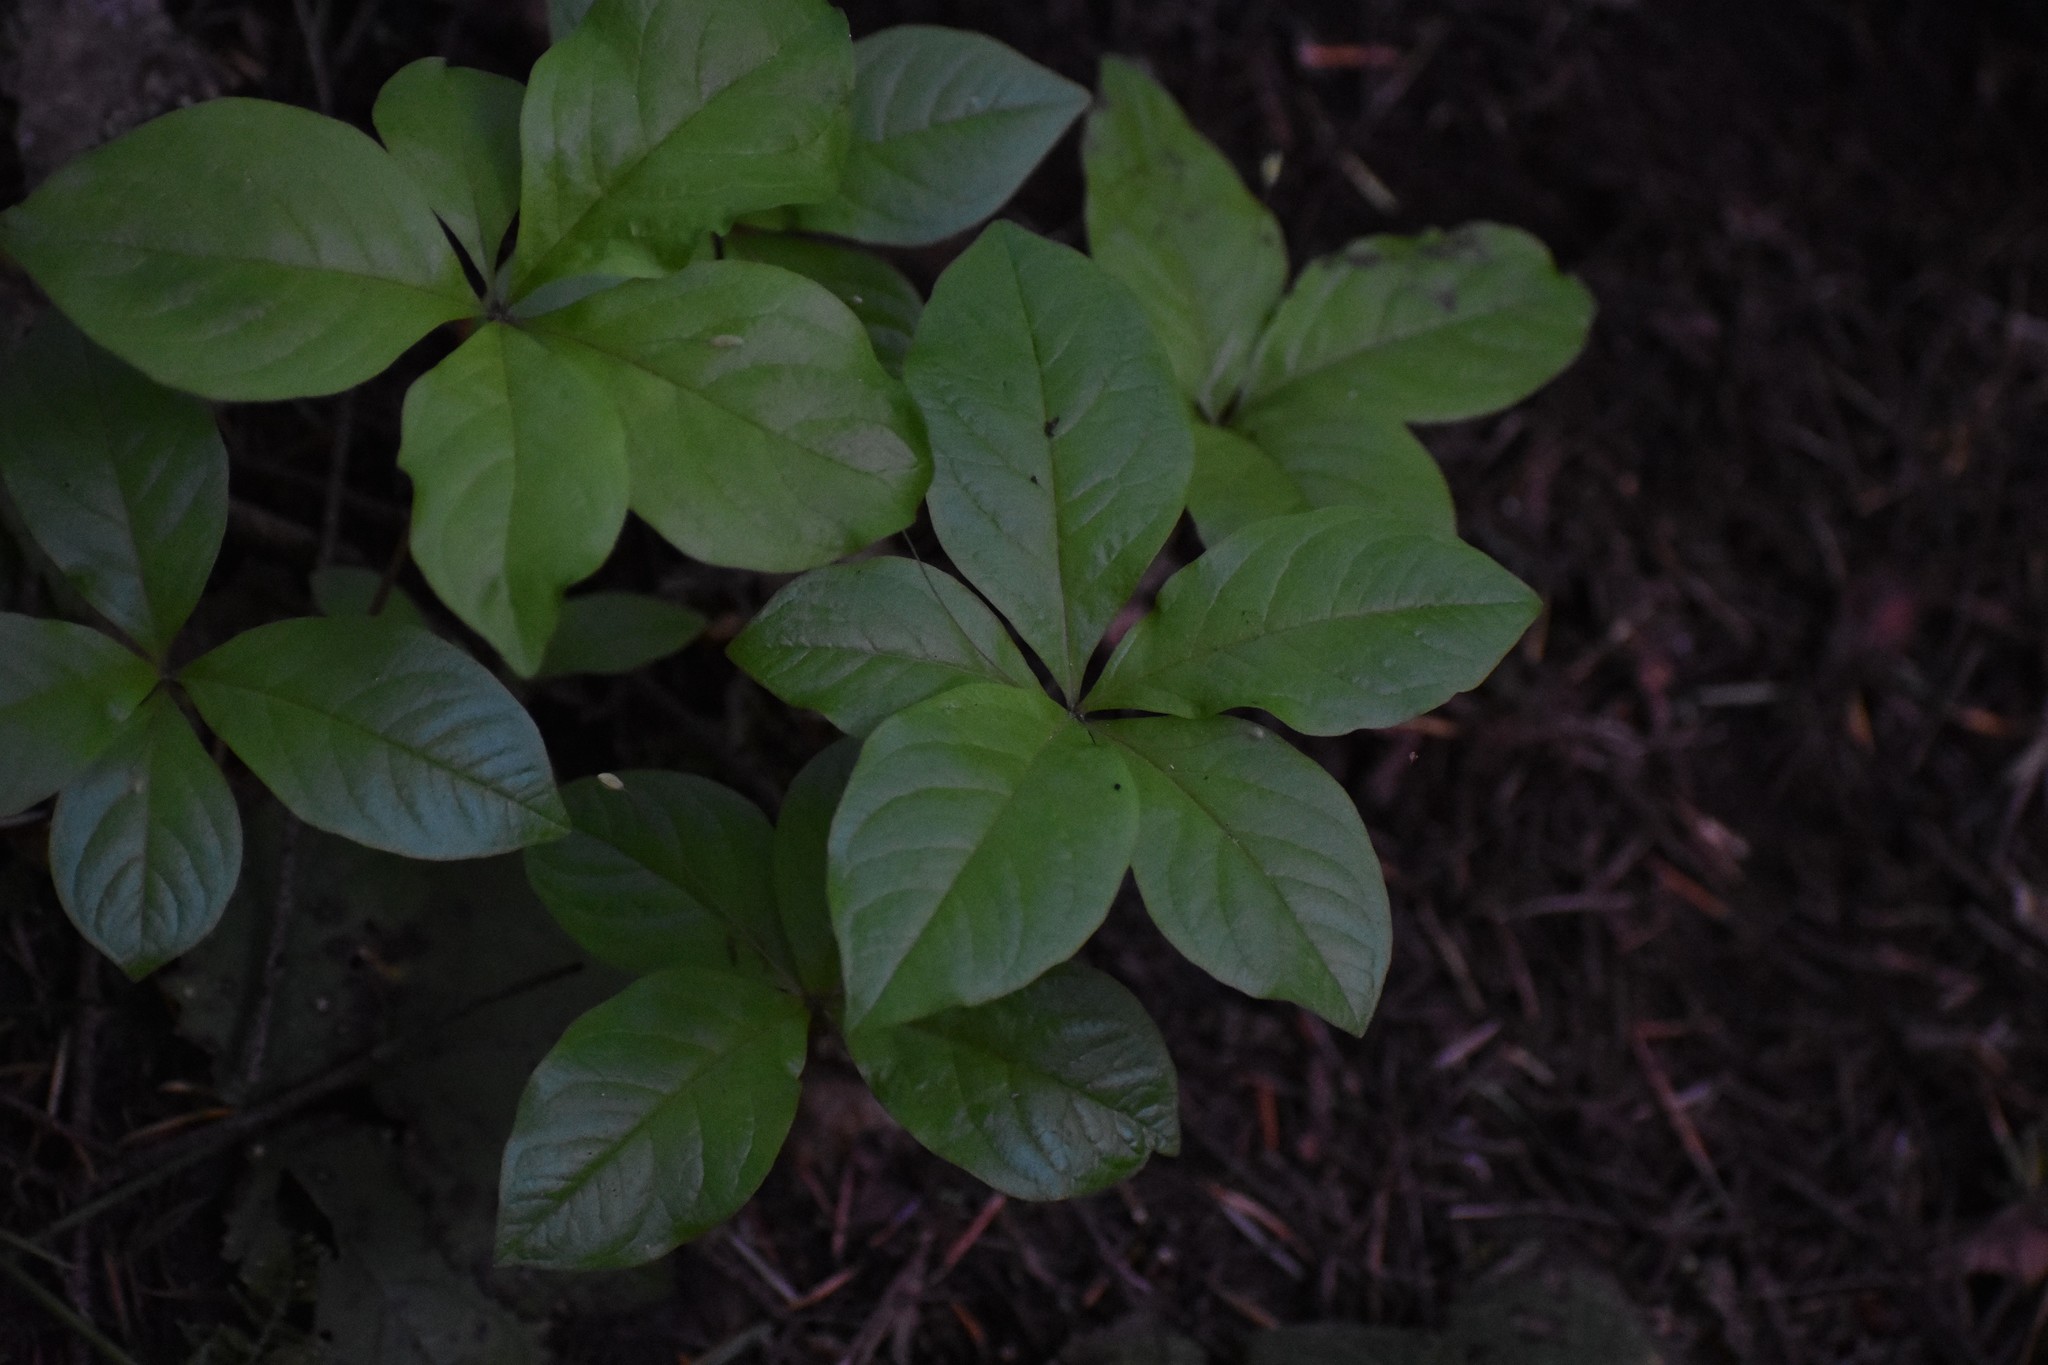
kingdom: Plantae
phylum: Tracheophyta
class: Magnoliopsida
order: Ericales
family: Primulaceae
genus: Lysimachia
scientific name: Lysimachia latifolia
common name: Pacific starflower
